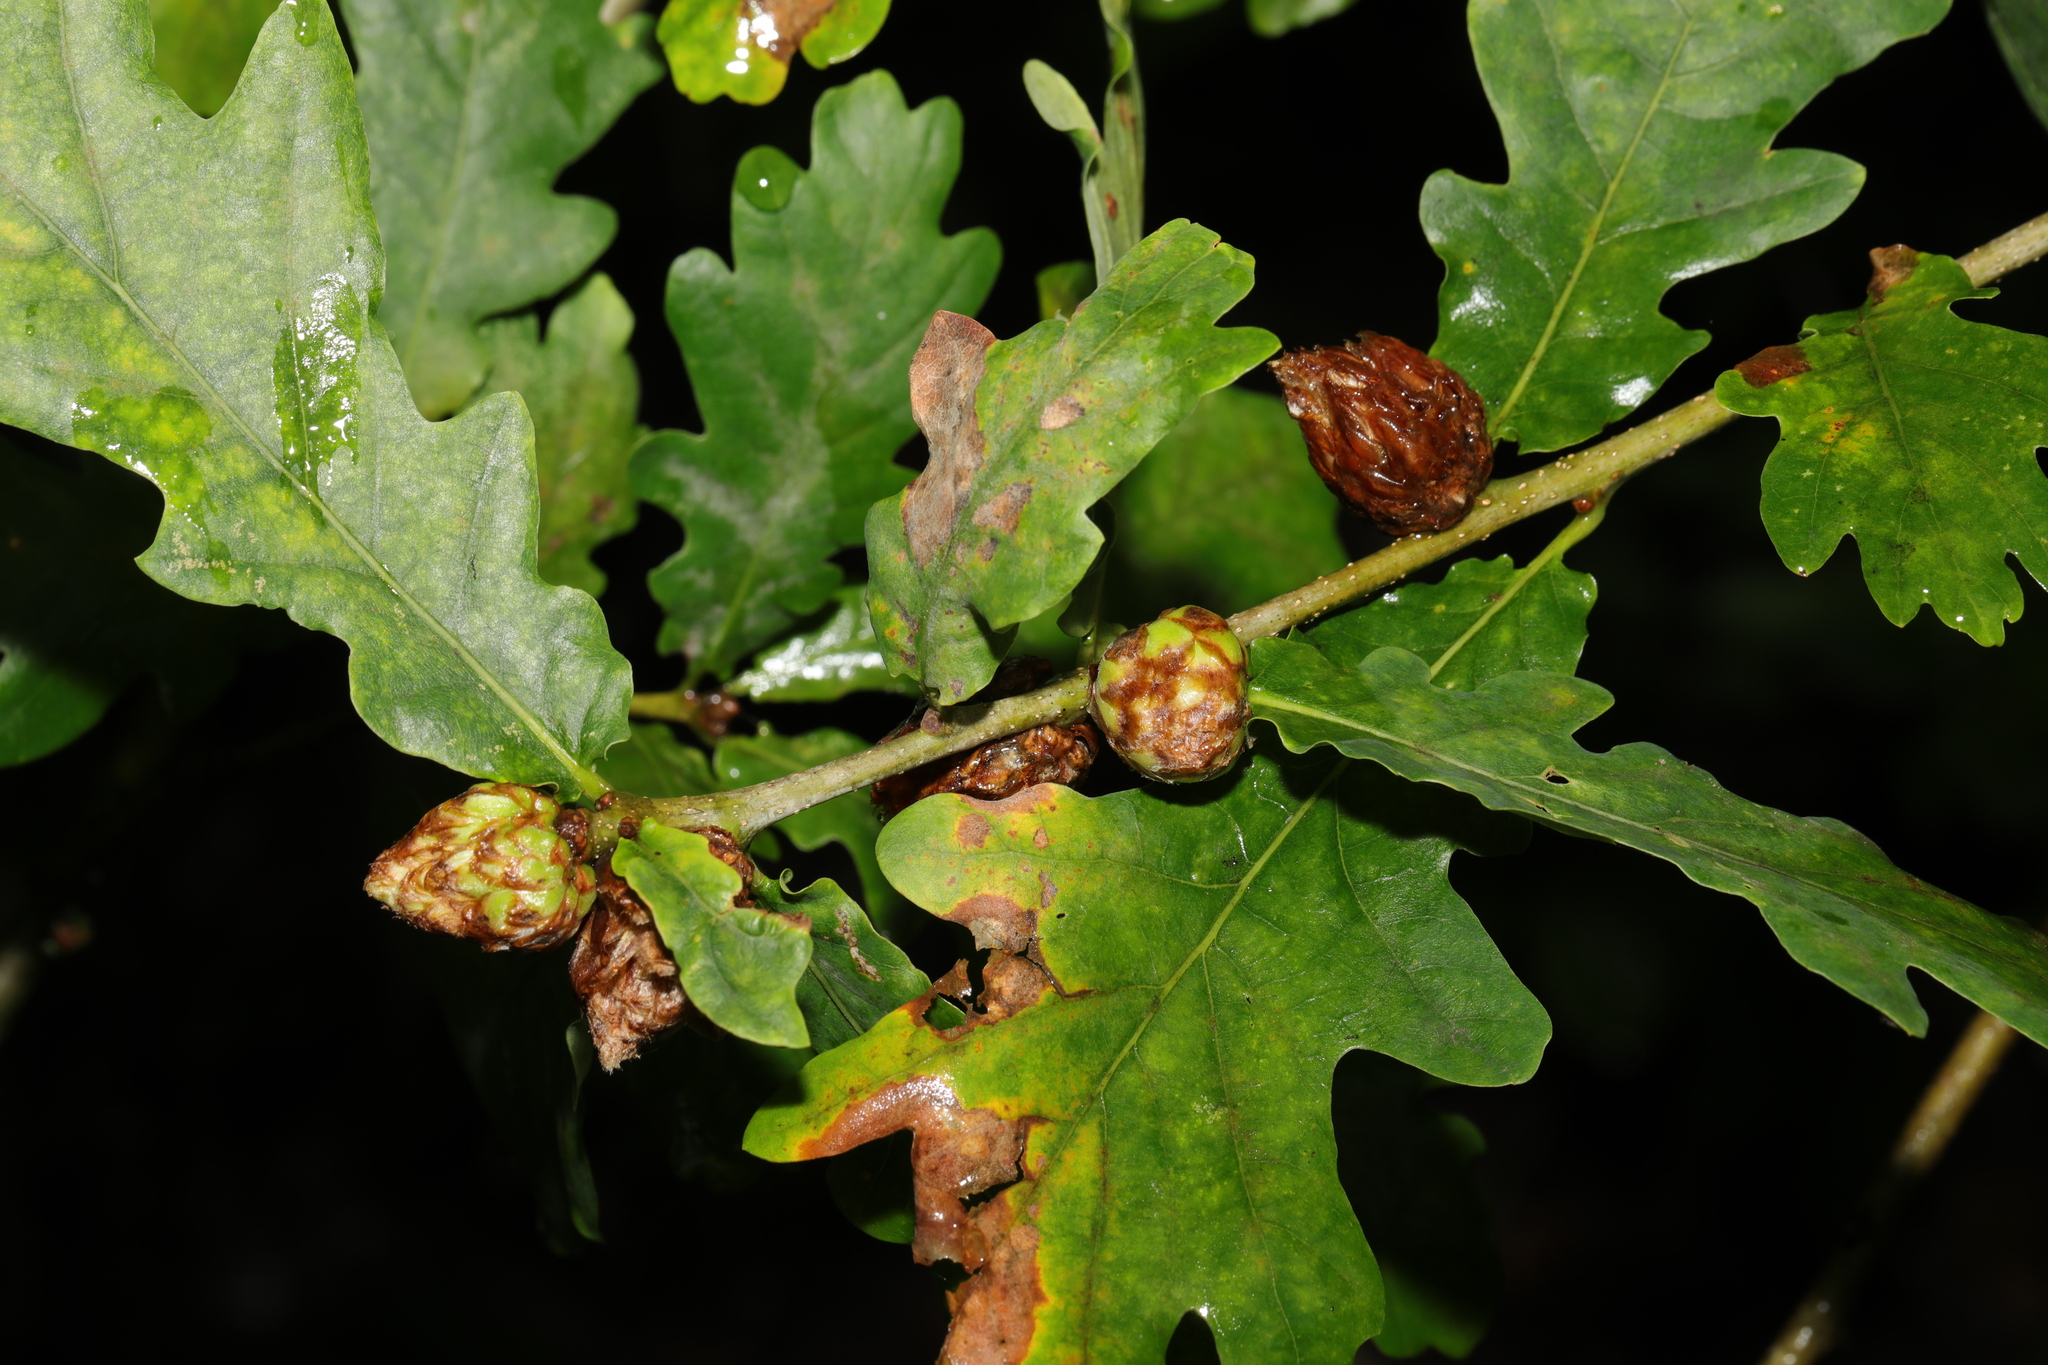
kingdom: Animalia
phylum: Arthropoda
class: Insecta
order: Hymenoptera
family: Cynipidae
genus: Andricus
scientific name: Andricus foecundatrix
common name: Artichoke gall
